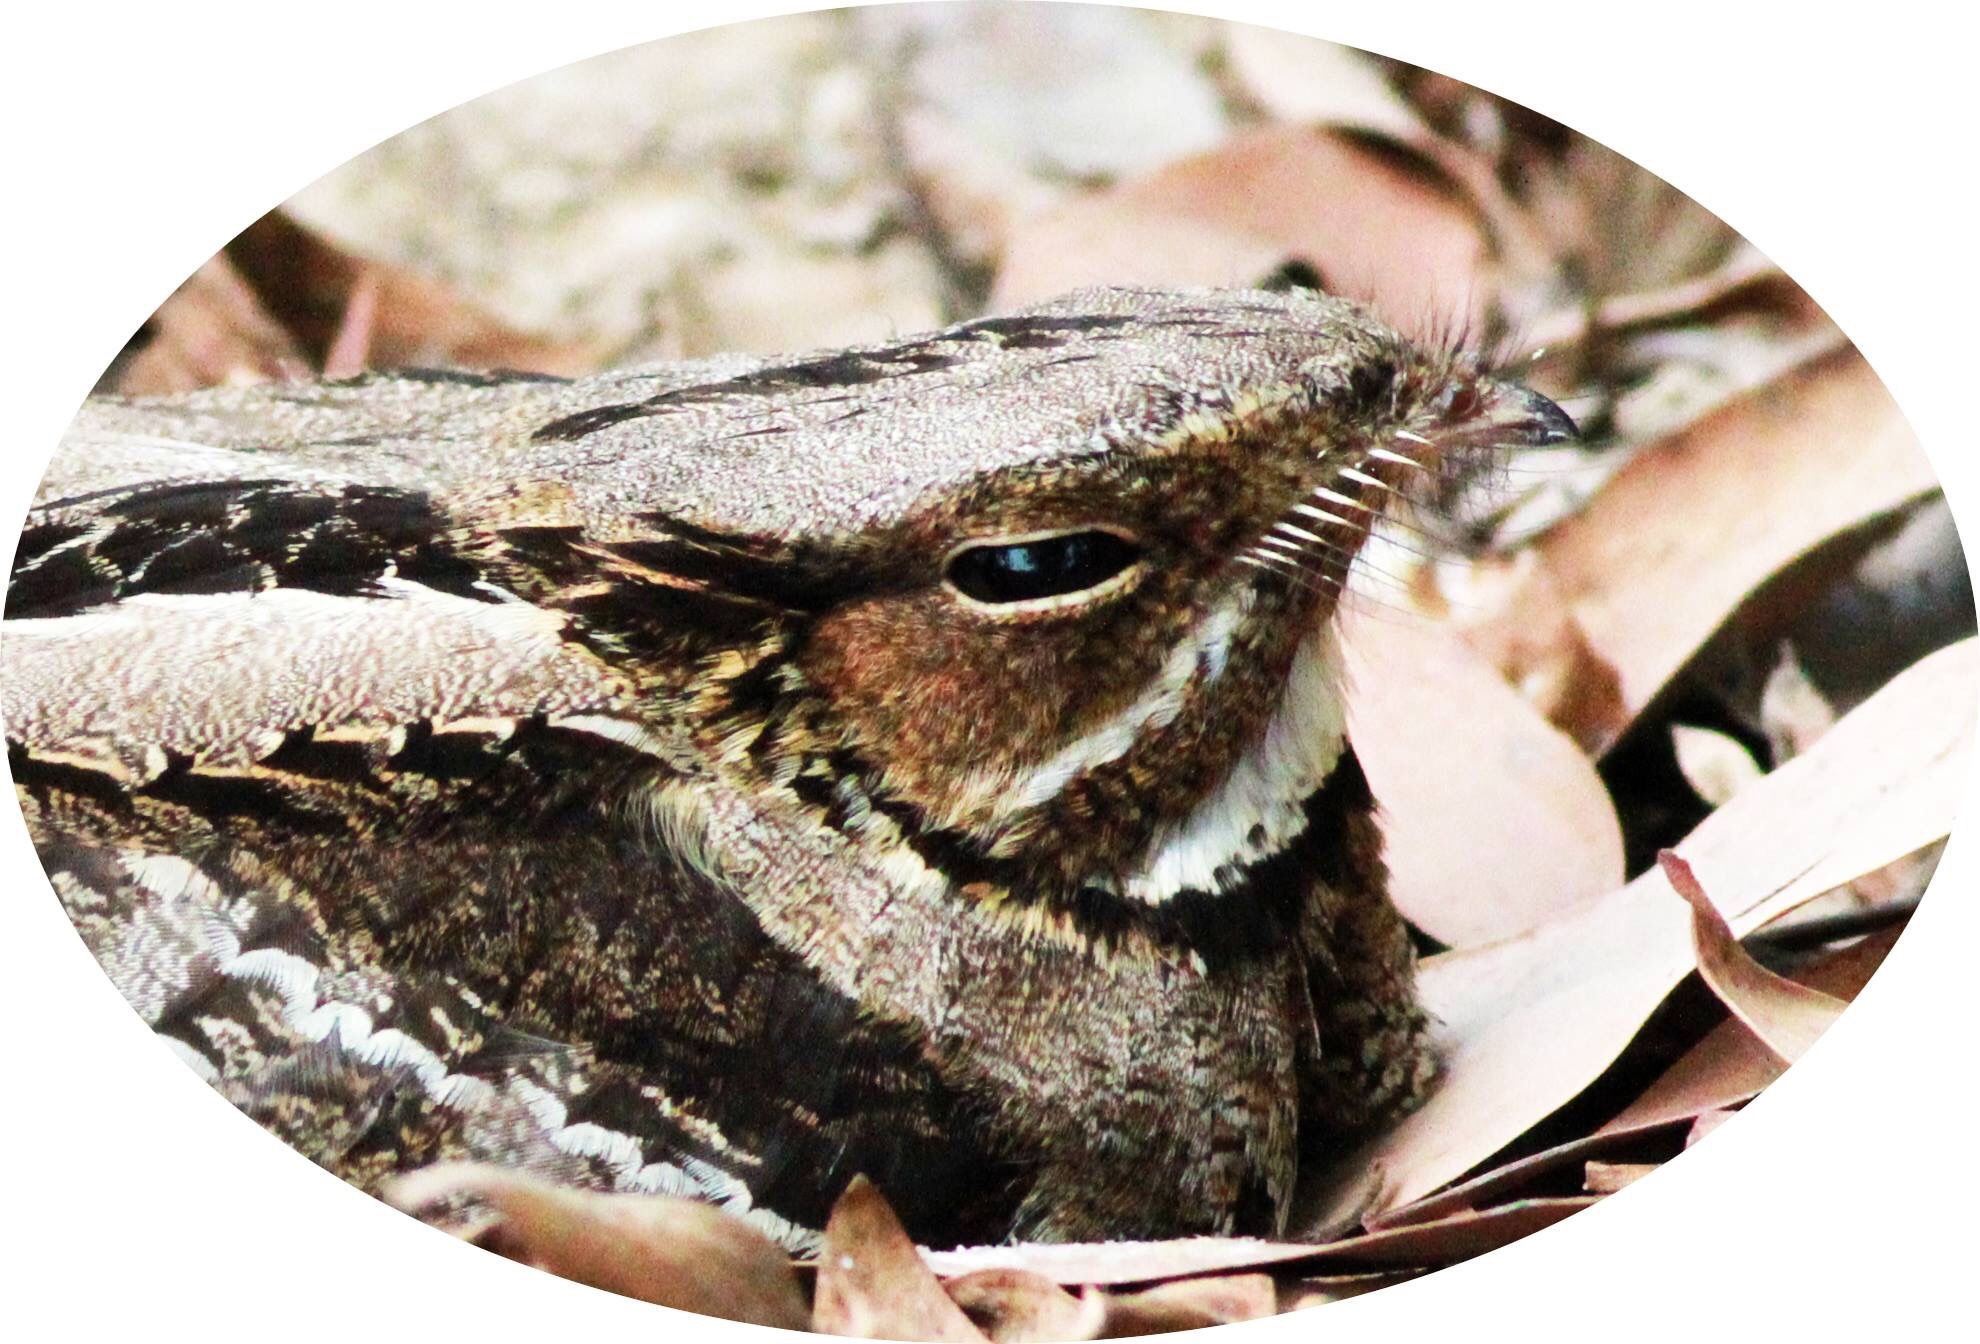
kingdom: Animalia
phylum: Chordata
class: Aves
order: Caprimulgiformes
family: Caprimulgidae
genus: Caprimulgus
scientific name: Caprimulgus macrurus
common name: Large-tailed nightjar
